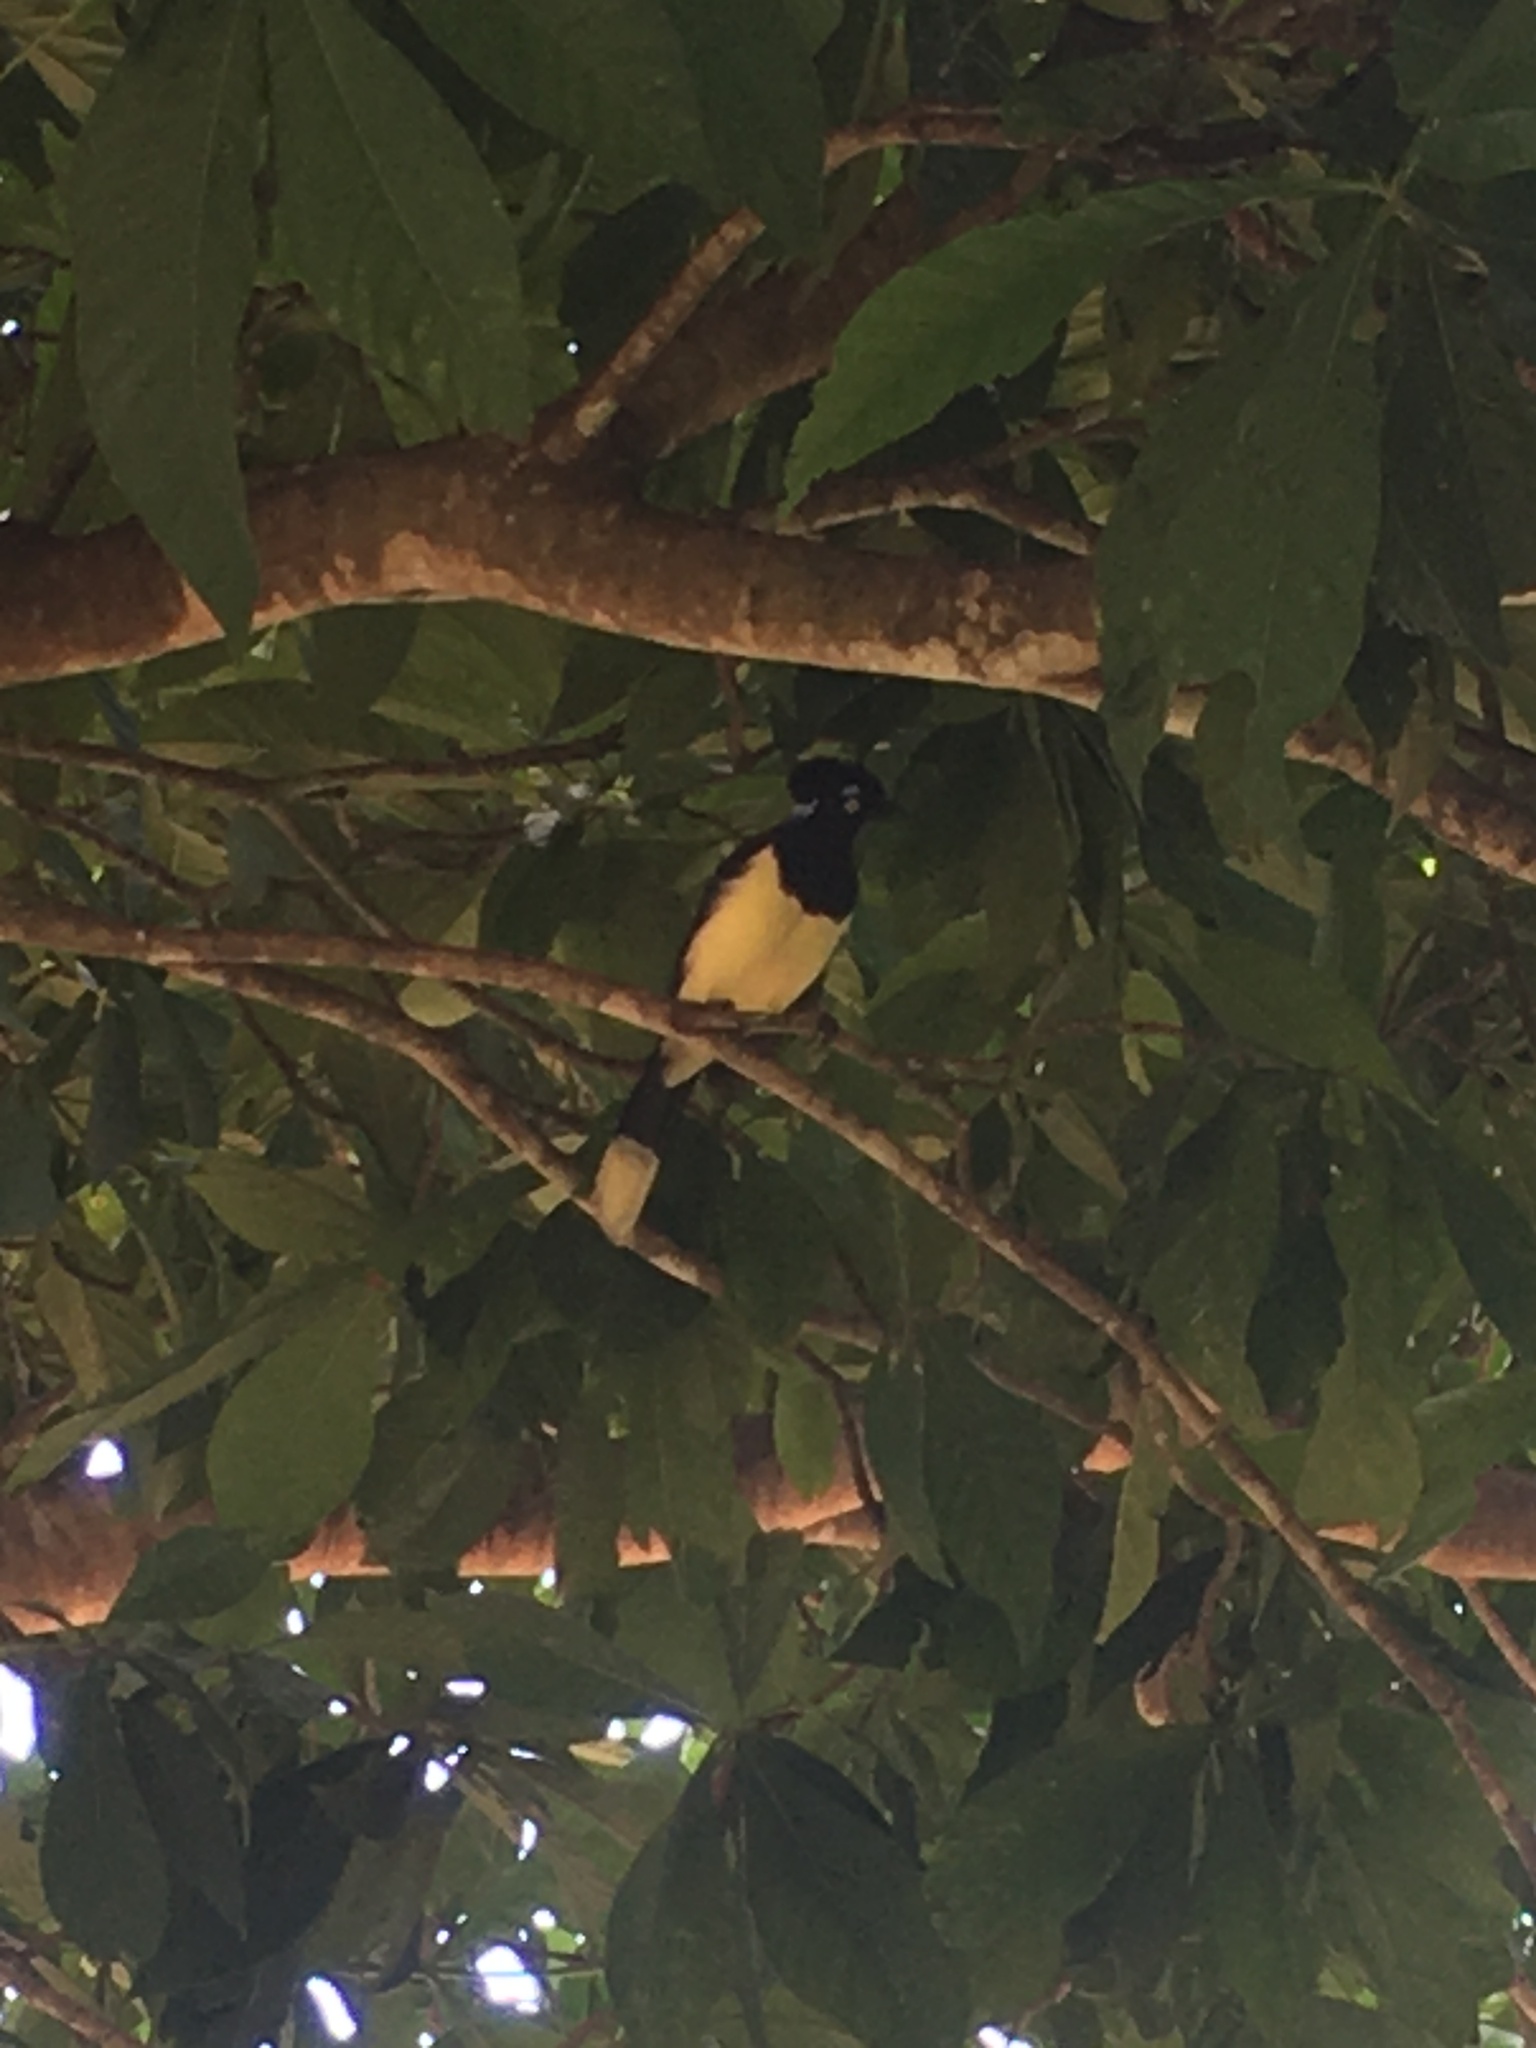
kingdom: Animalia
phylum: Chordata
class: Aves
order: Passeriformes
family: Corvidae
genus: Cyanocorax
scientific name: Cyanocorax chrysops
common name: Plush-crested jay
